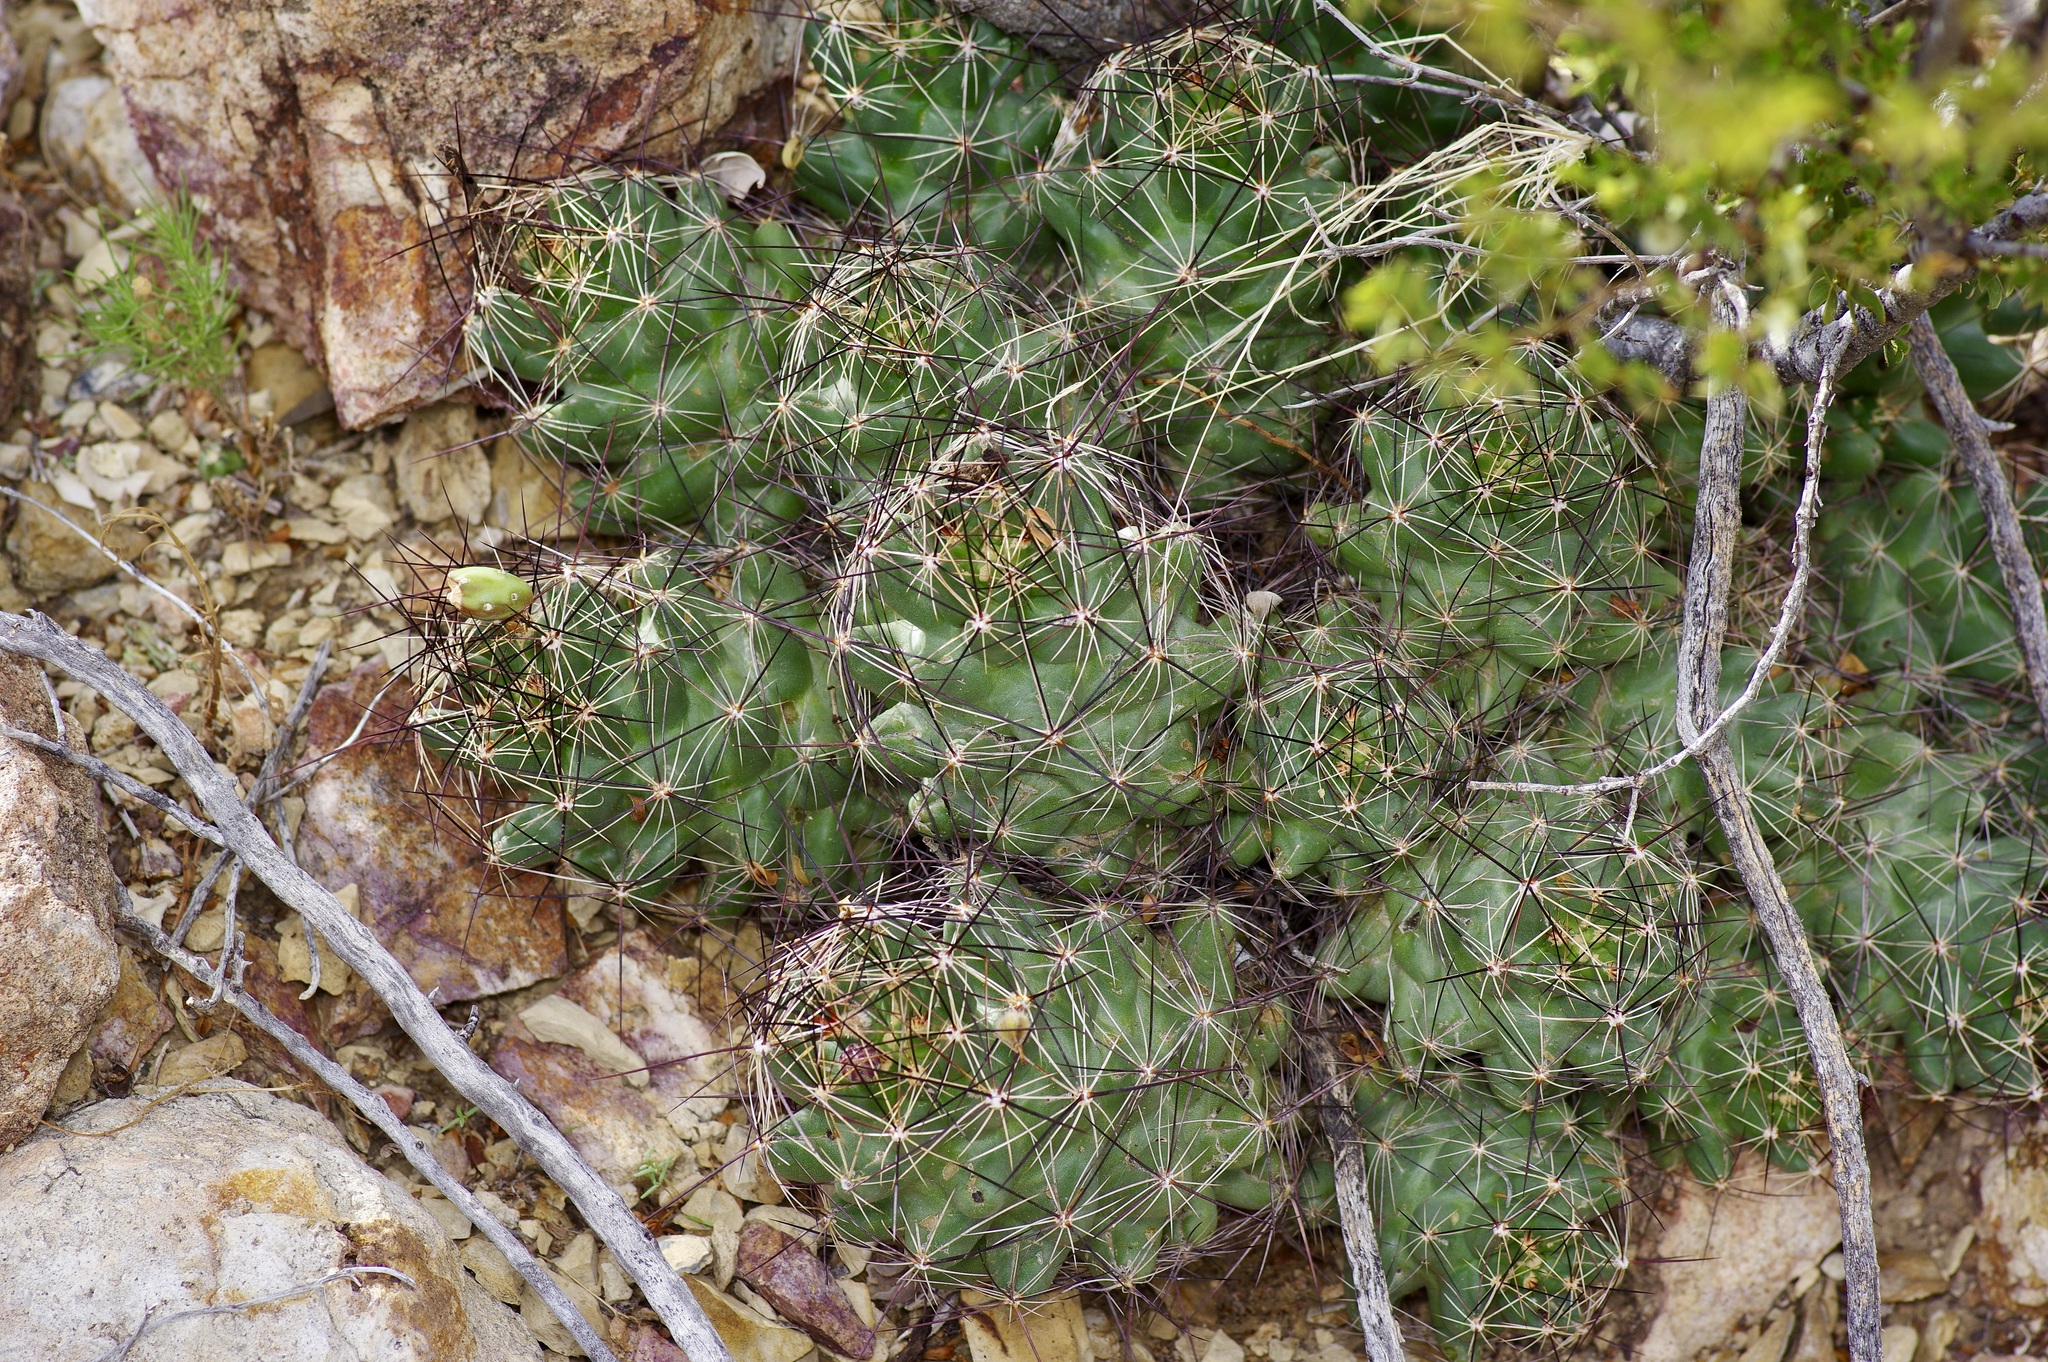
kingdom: Plantae
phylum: Tracheophyta
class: Magnoliopsida
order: Caryophyllales
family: Cactaceae
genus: Coryphantha
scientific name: Coryphantha macromeris
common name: Nipple beehive cactus
